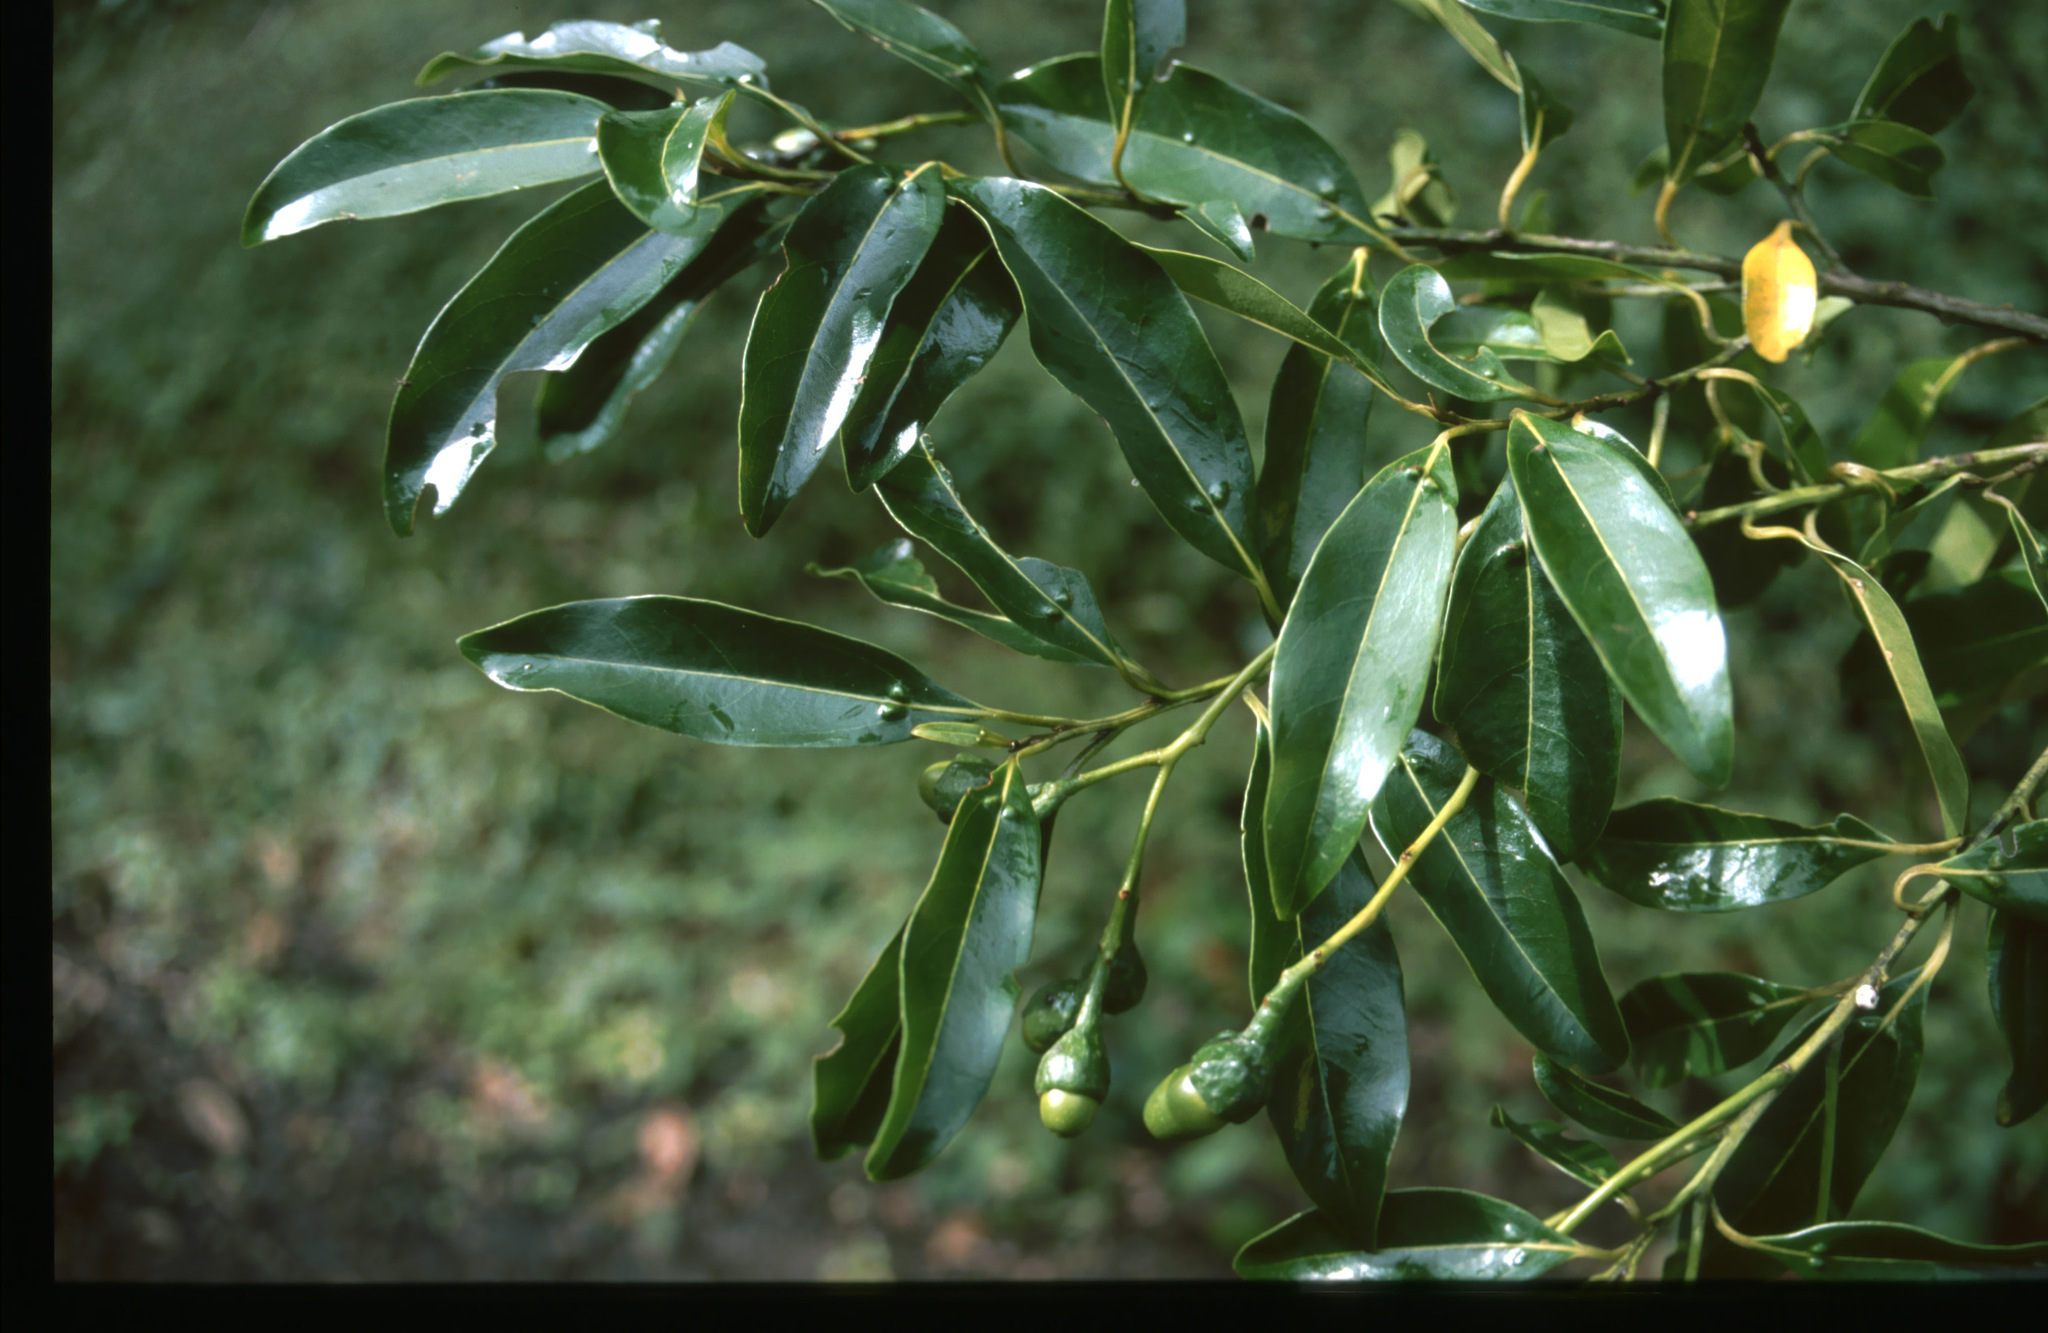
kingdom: Plantae
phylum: Tracheophyta
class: Magnoliopsida
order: Laurales
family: Lauraceae
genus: Mespilodaphne
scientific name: Mespilodaphne foetens
